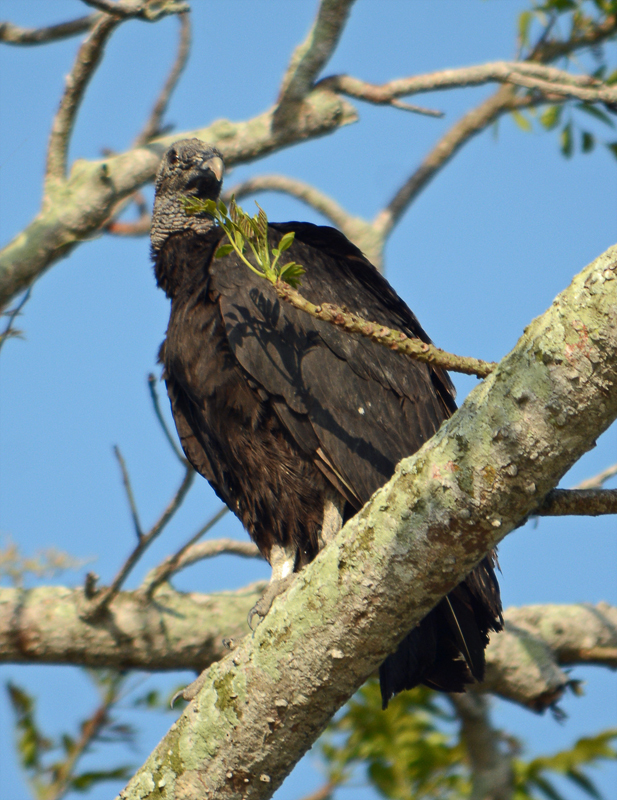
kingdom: Animalia
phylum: Chordata
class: Aves
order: Accipitriformes
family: Cathartidae
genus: Coragyps
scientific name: Coragyps atratus
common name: Black vulture
